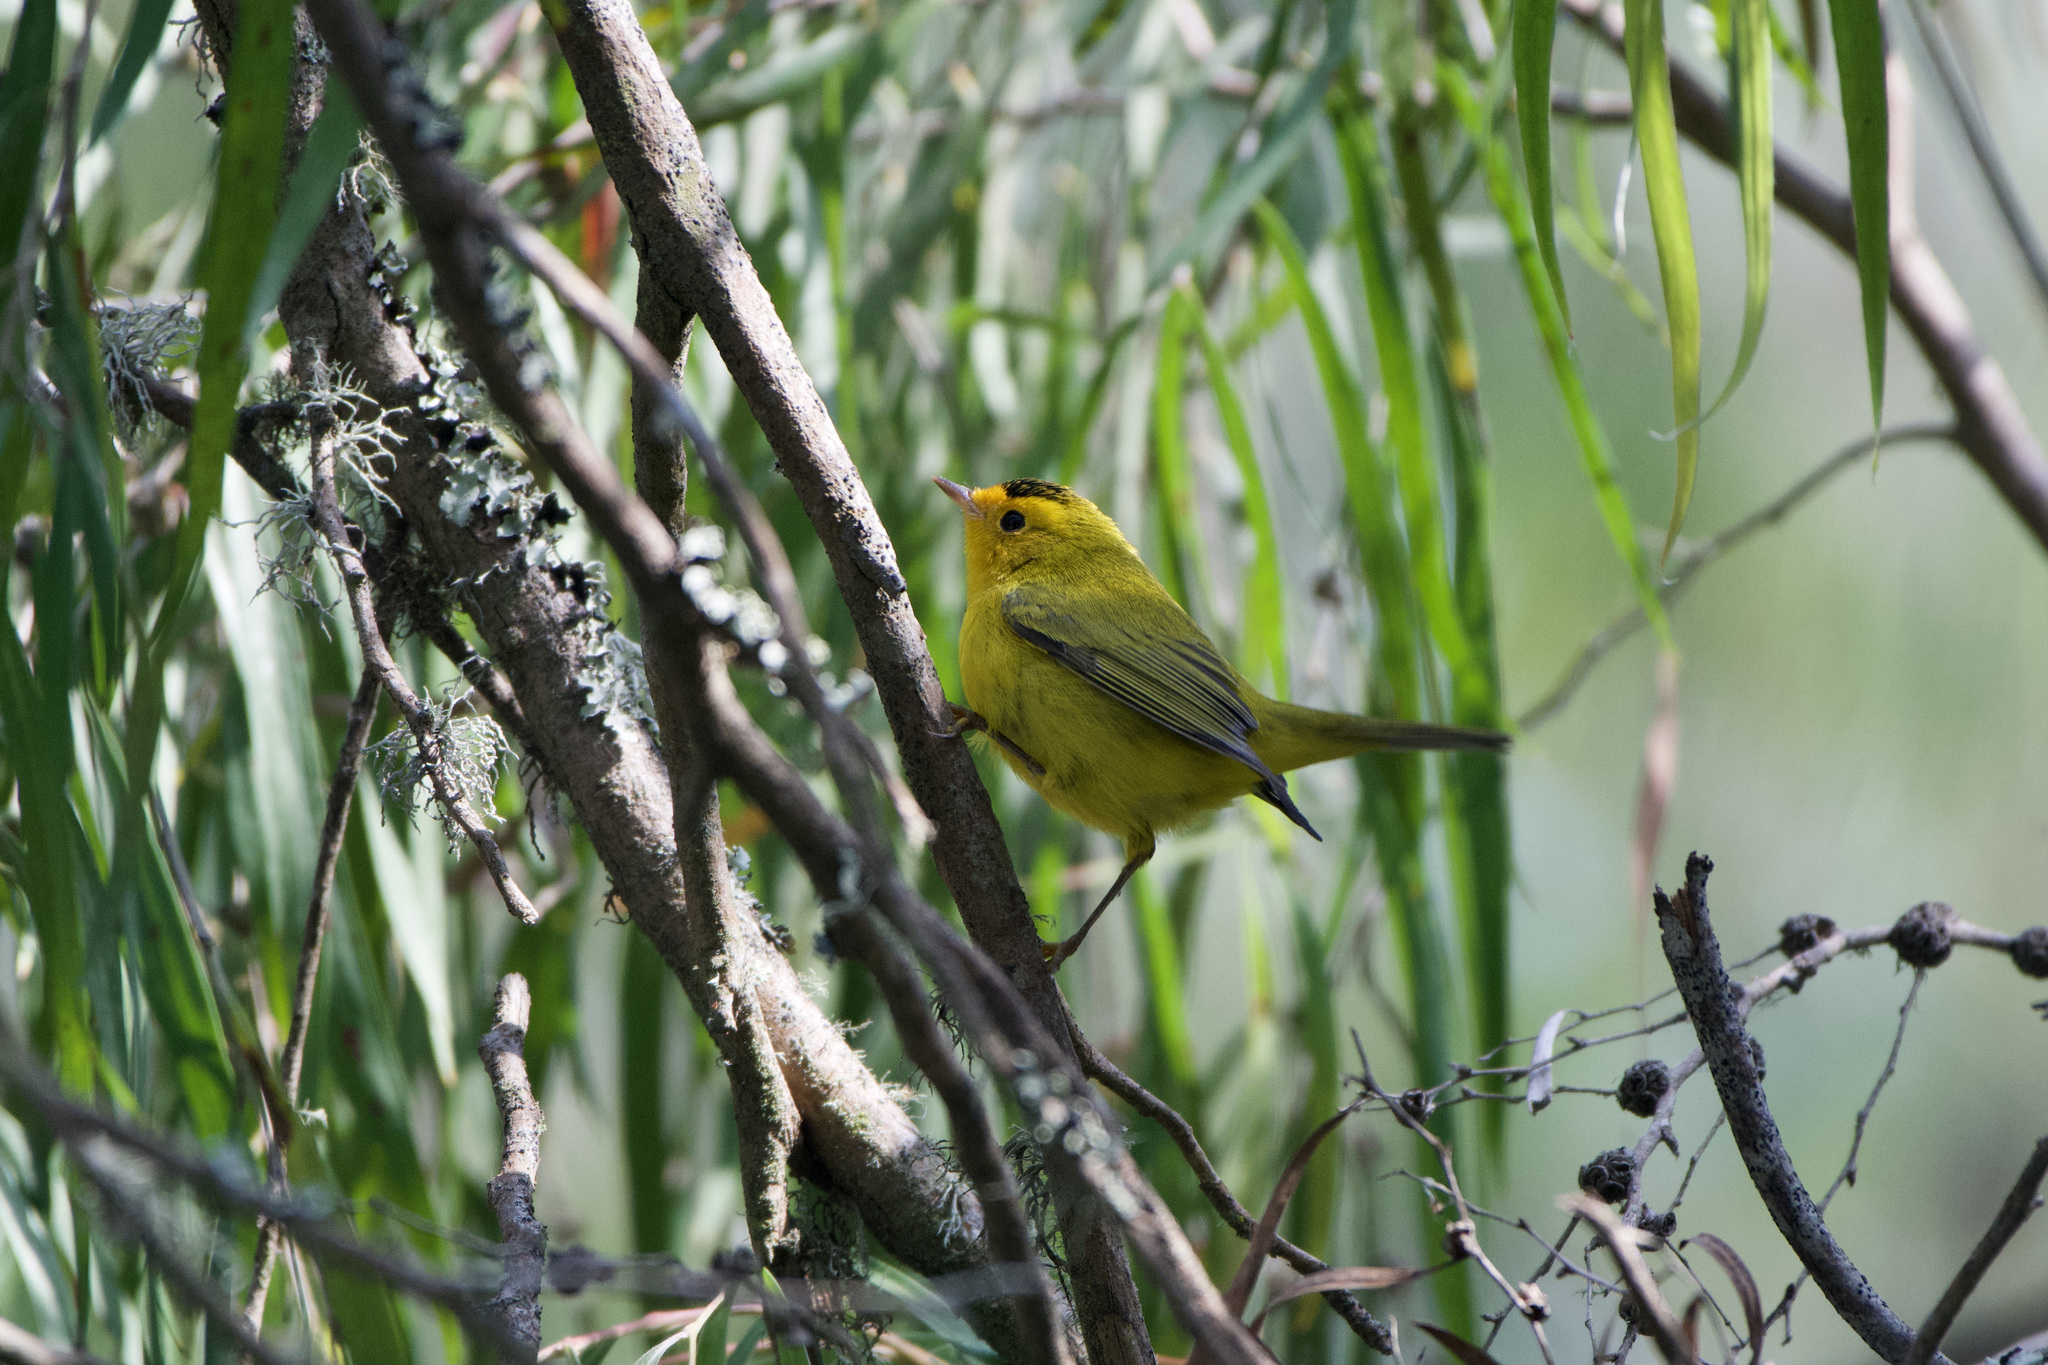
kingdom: Animalia
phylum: Chordata
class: Aves
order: Passeriformes
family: Parulidae
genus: Cardellina
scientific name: Cardellina pusilla
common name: Wilson's warbler
